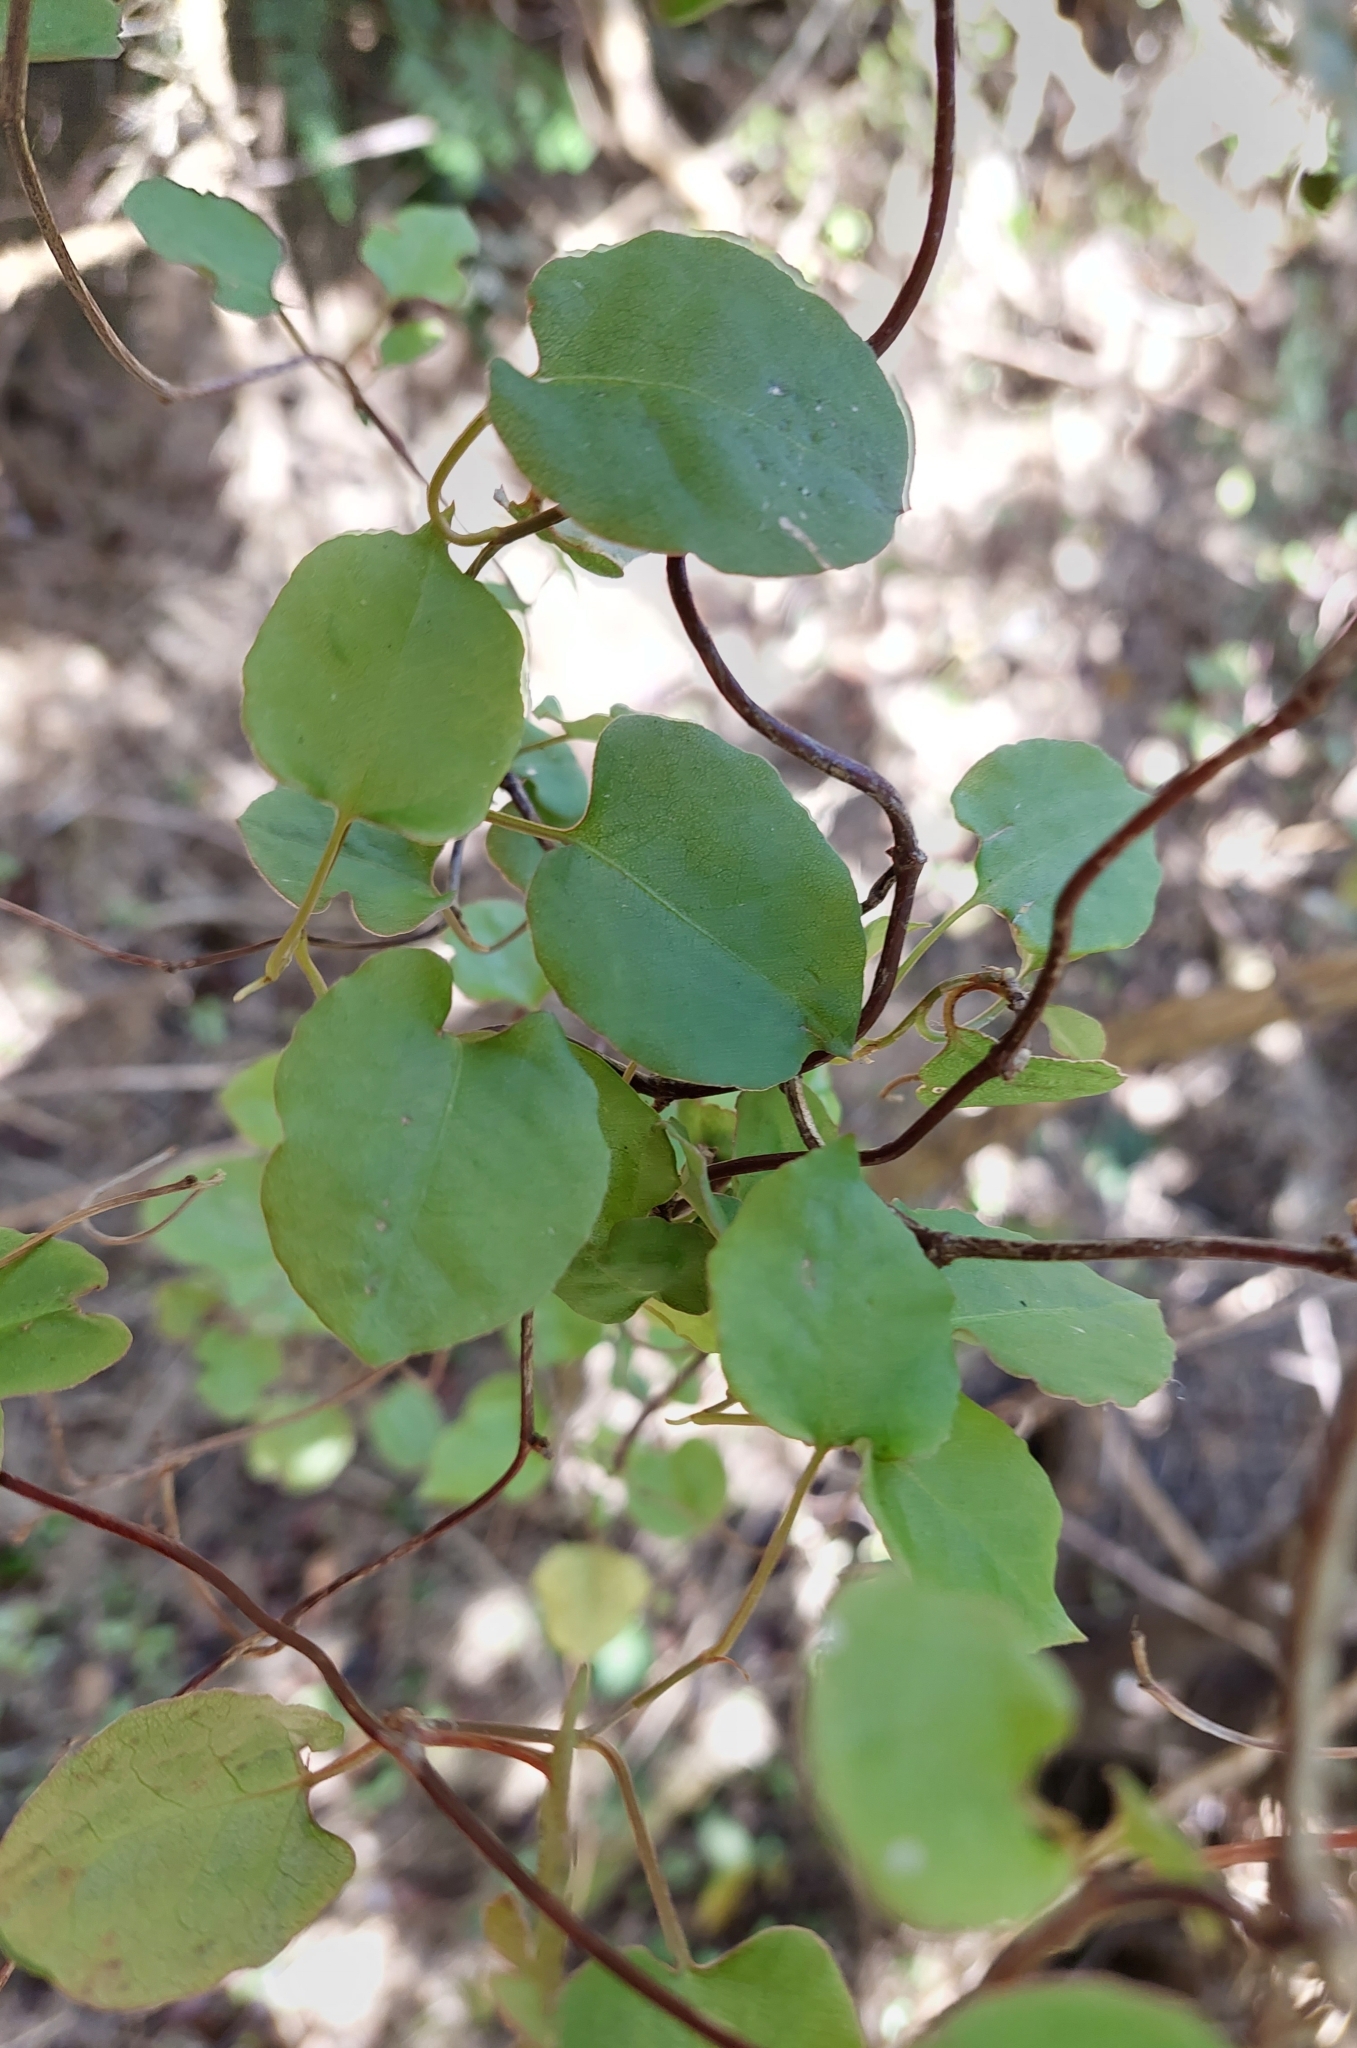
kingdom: Plantae
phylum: Tracheophyta
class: Magnoliopsida
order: Caryophyllales
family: Polygonaceae
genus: Muehlenbeckia
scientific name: Muehlenbeckia australis
